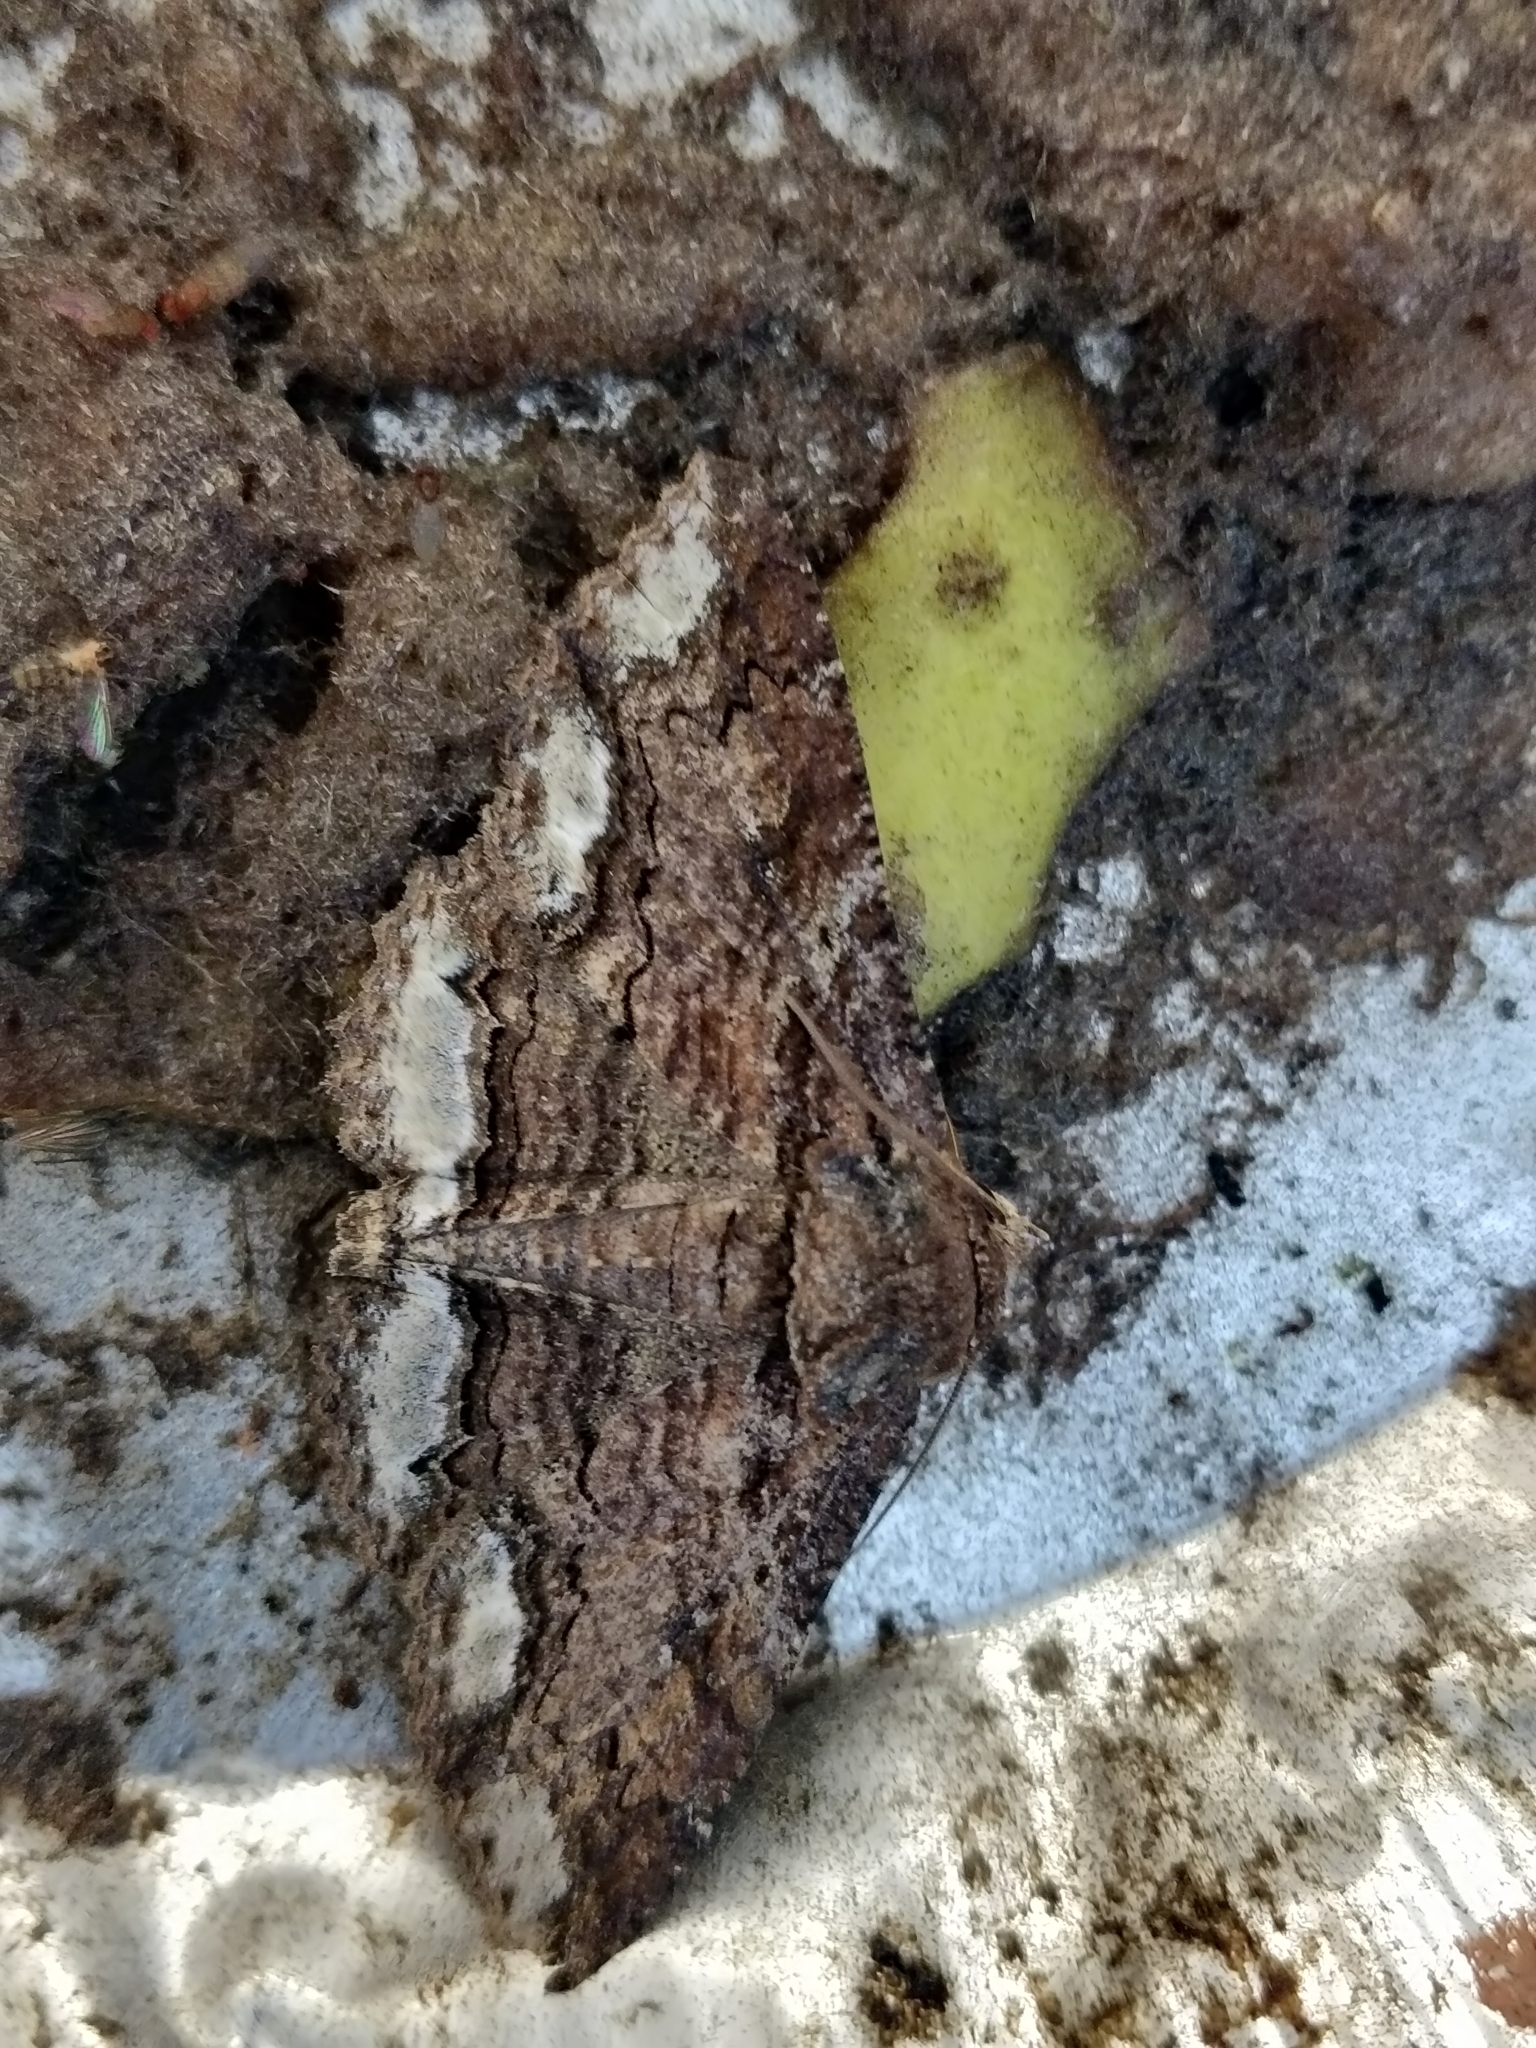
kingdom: Animalia
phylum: Arthropoda
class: Insecta
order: Lepidoptera
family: Erebidae
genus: Zale
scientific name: Zale lunata
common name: Lunate zale moth
